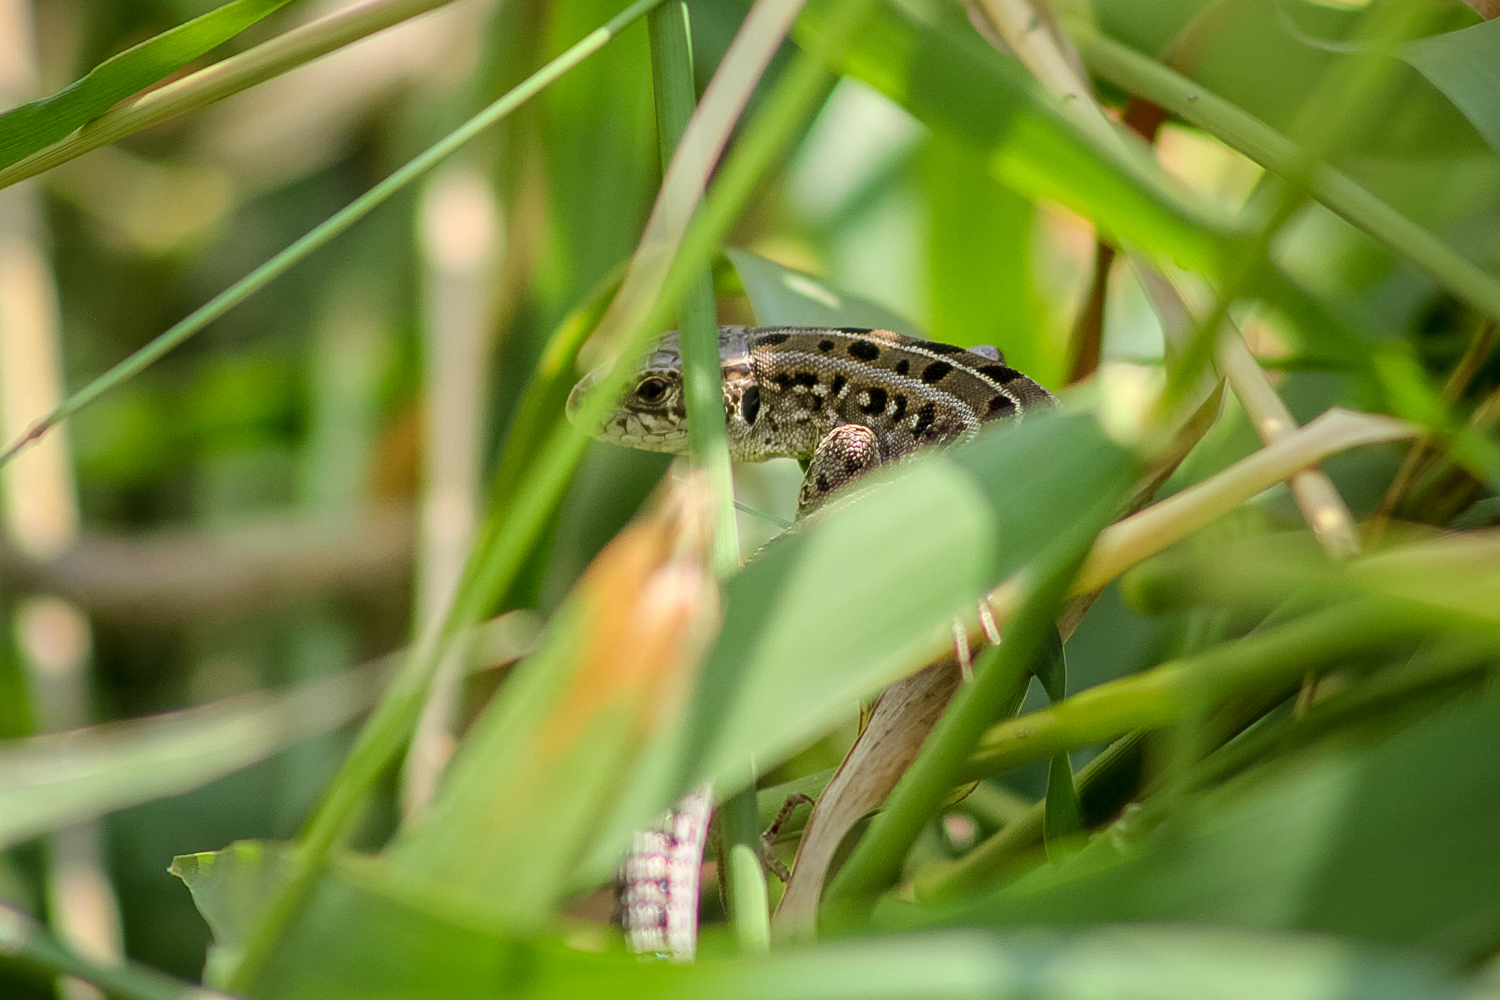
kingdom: Animalia
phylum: Chordata
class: Squamata
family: Lacertidae
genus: Lacerta
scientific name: Lacerta agilis
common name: Sand lizard
